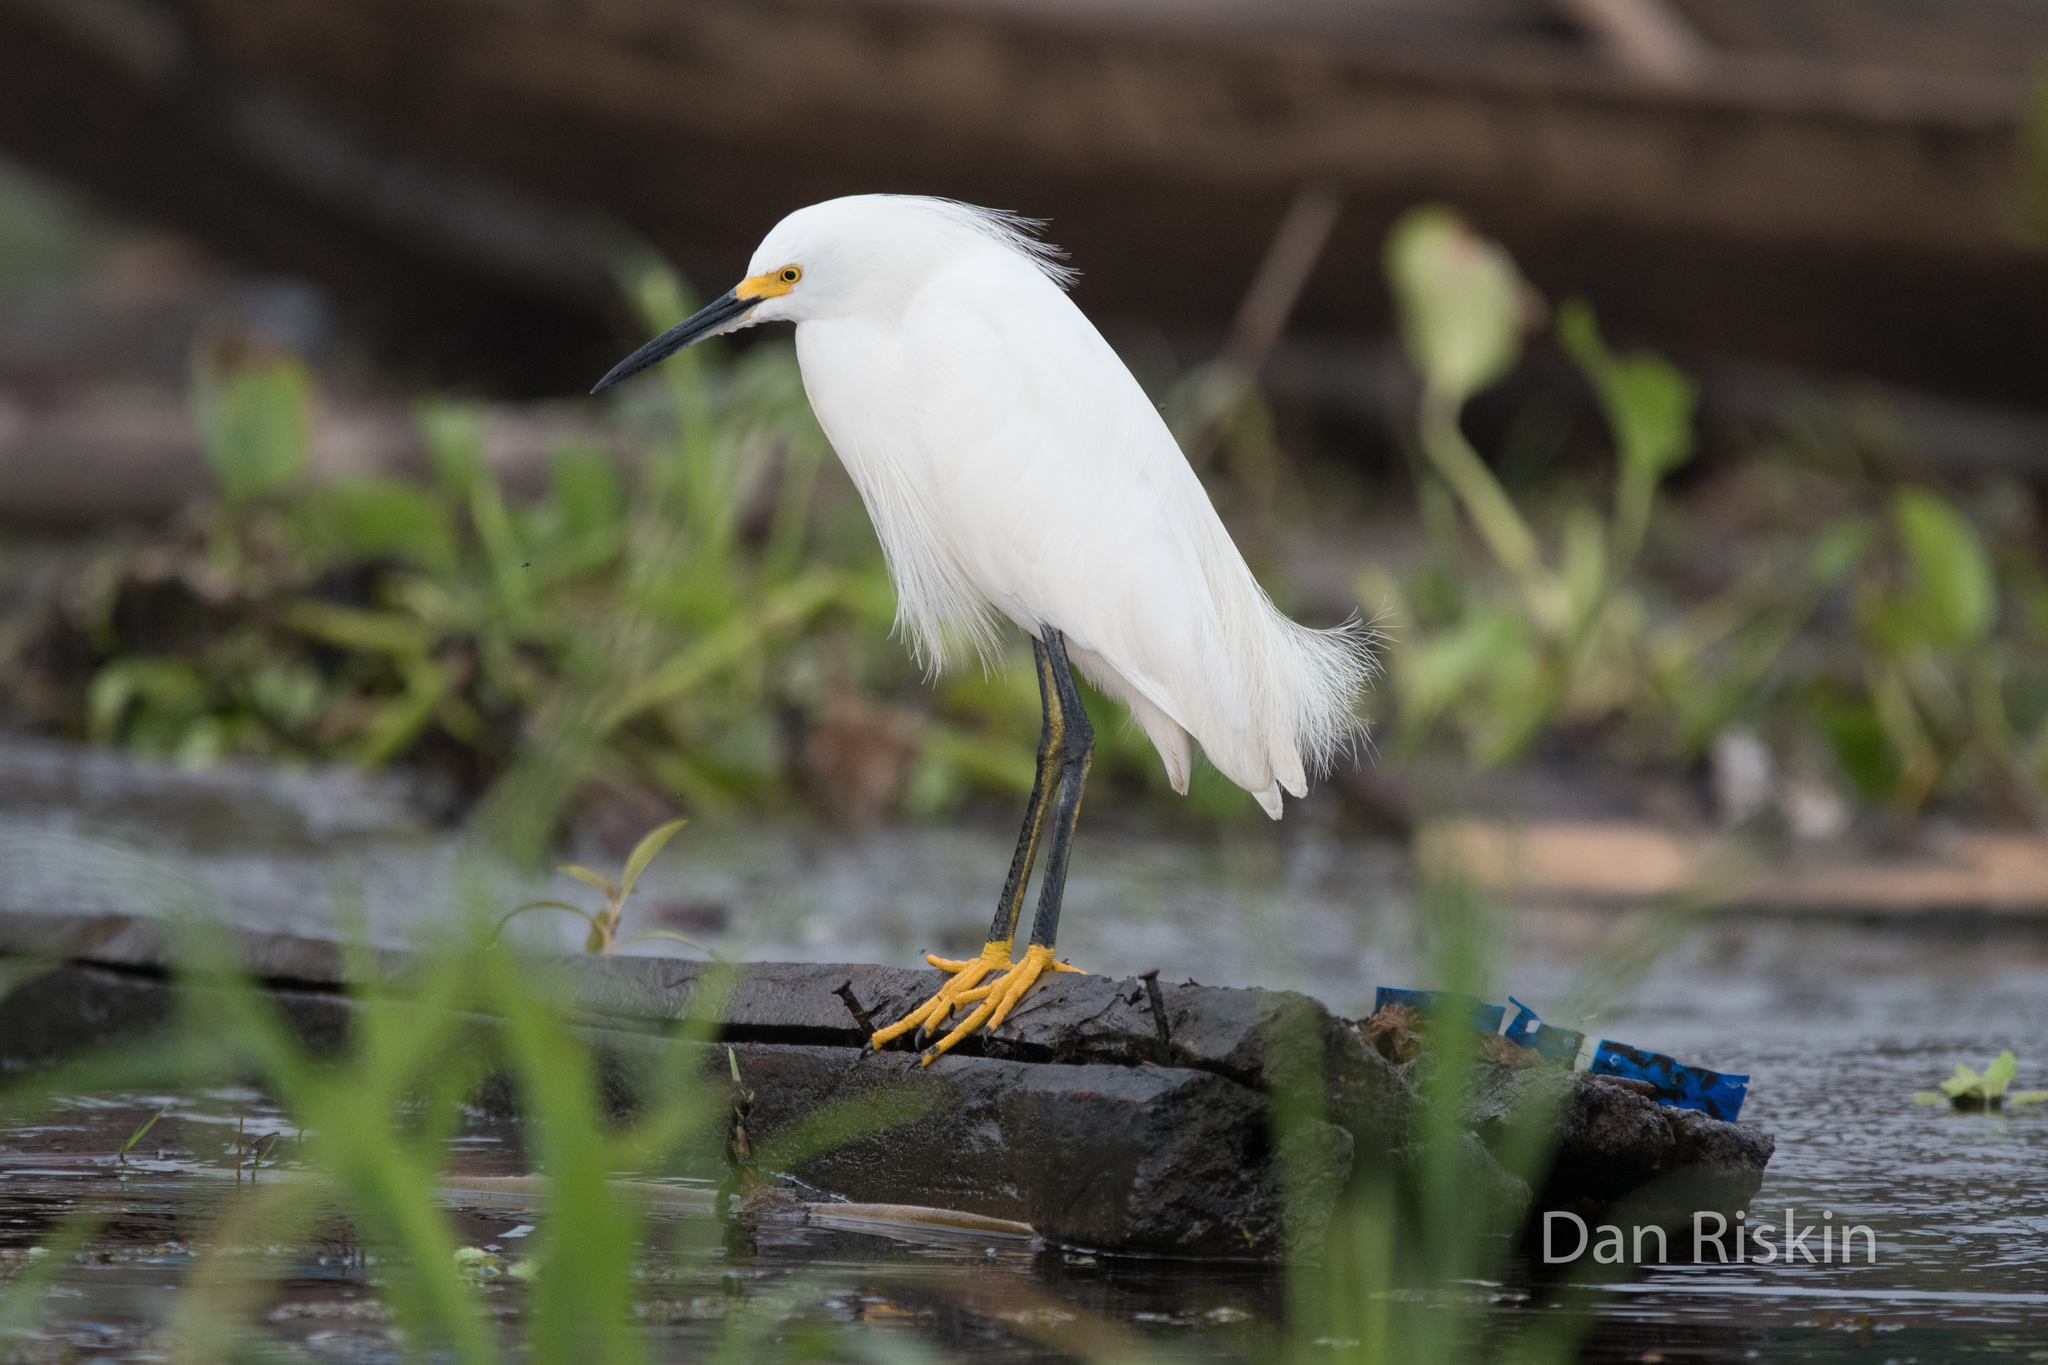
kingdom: Animalia
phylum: Chordata
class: Aves
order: Pelecaniformes
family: Ardeidae
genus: Egretta
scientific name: Egretta thula
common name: Snowy egret
